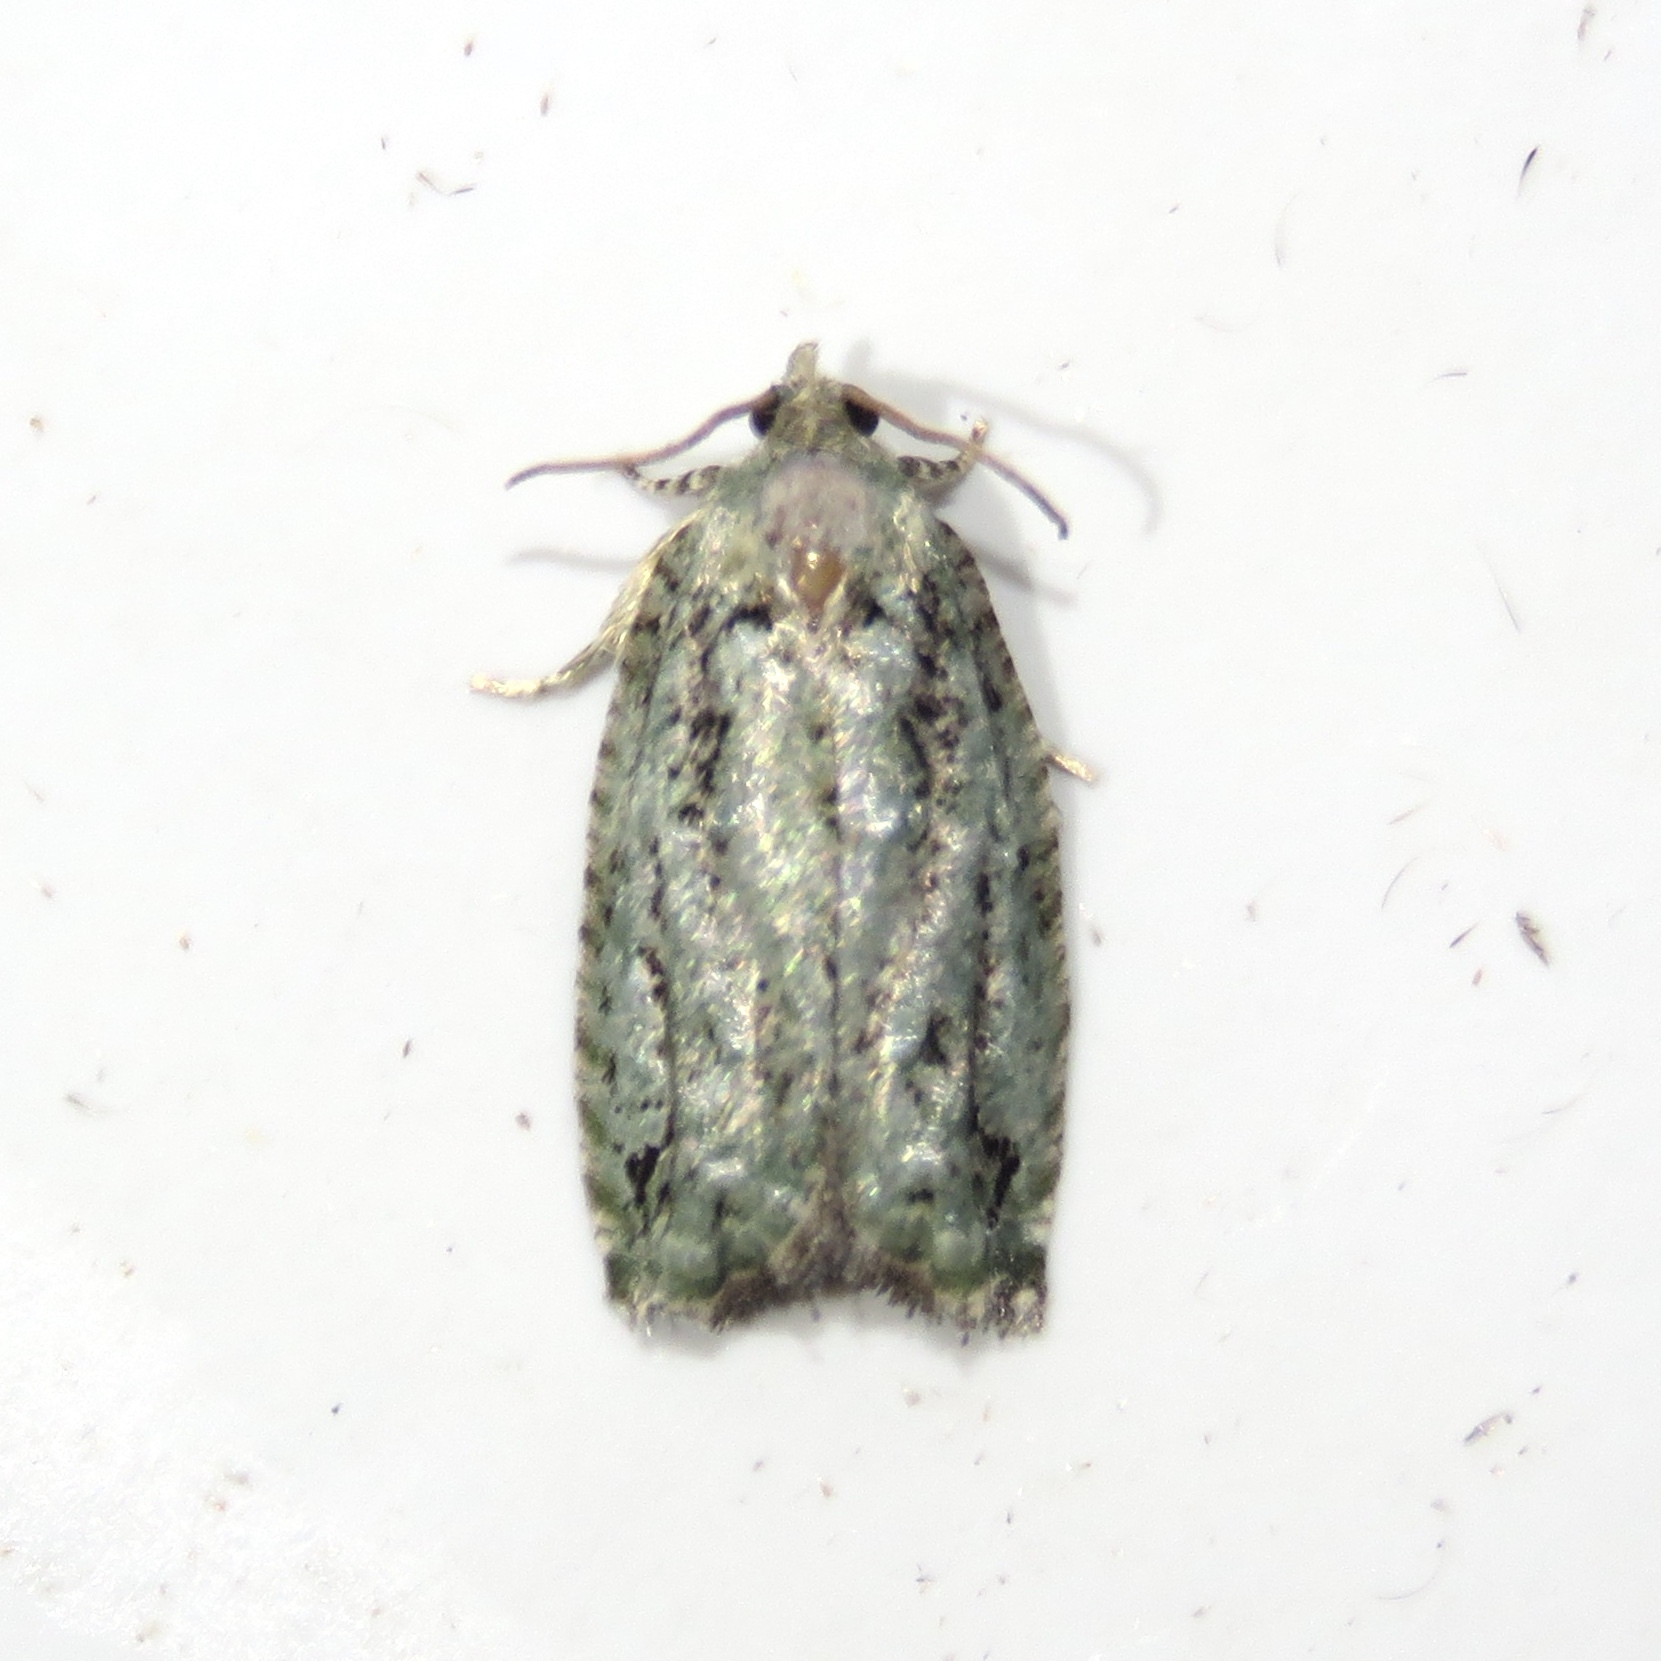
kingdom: Animalia
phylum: Arthropoda
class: Insecta
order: Lepidoptera
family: Tortricidae
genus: Proteoteras
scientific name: Proteoteras moffatiana
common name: Maple bud borer moth
